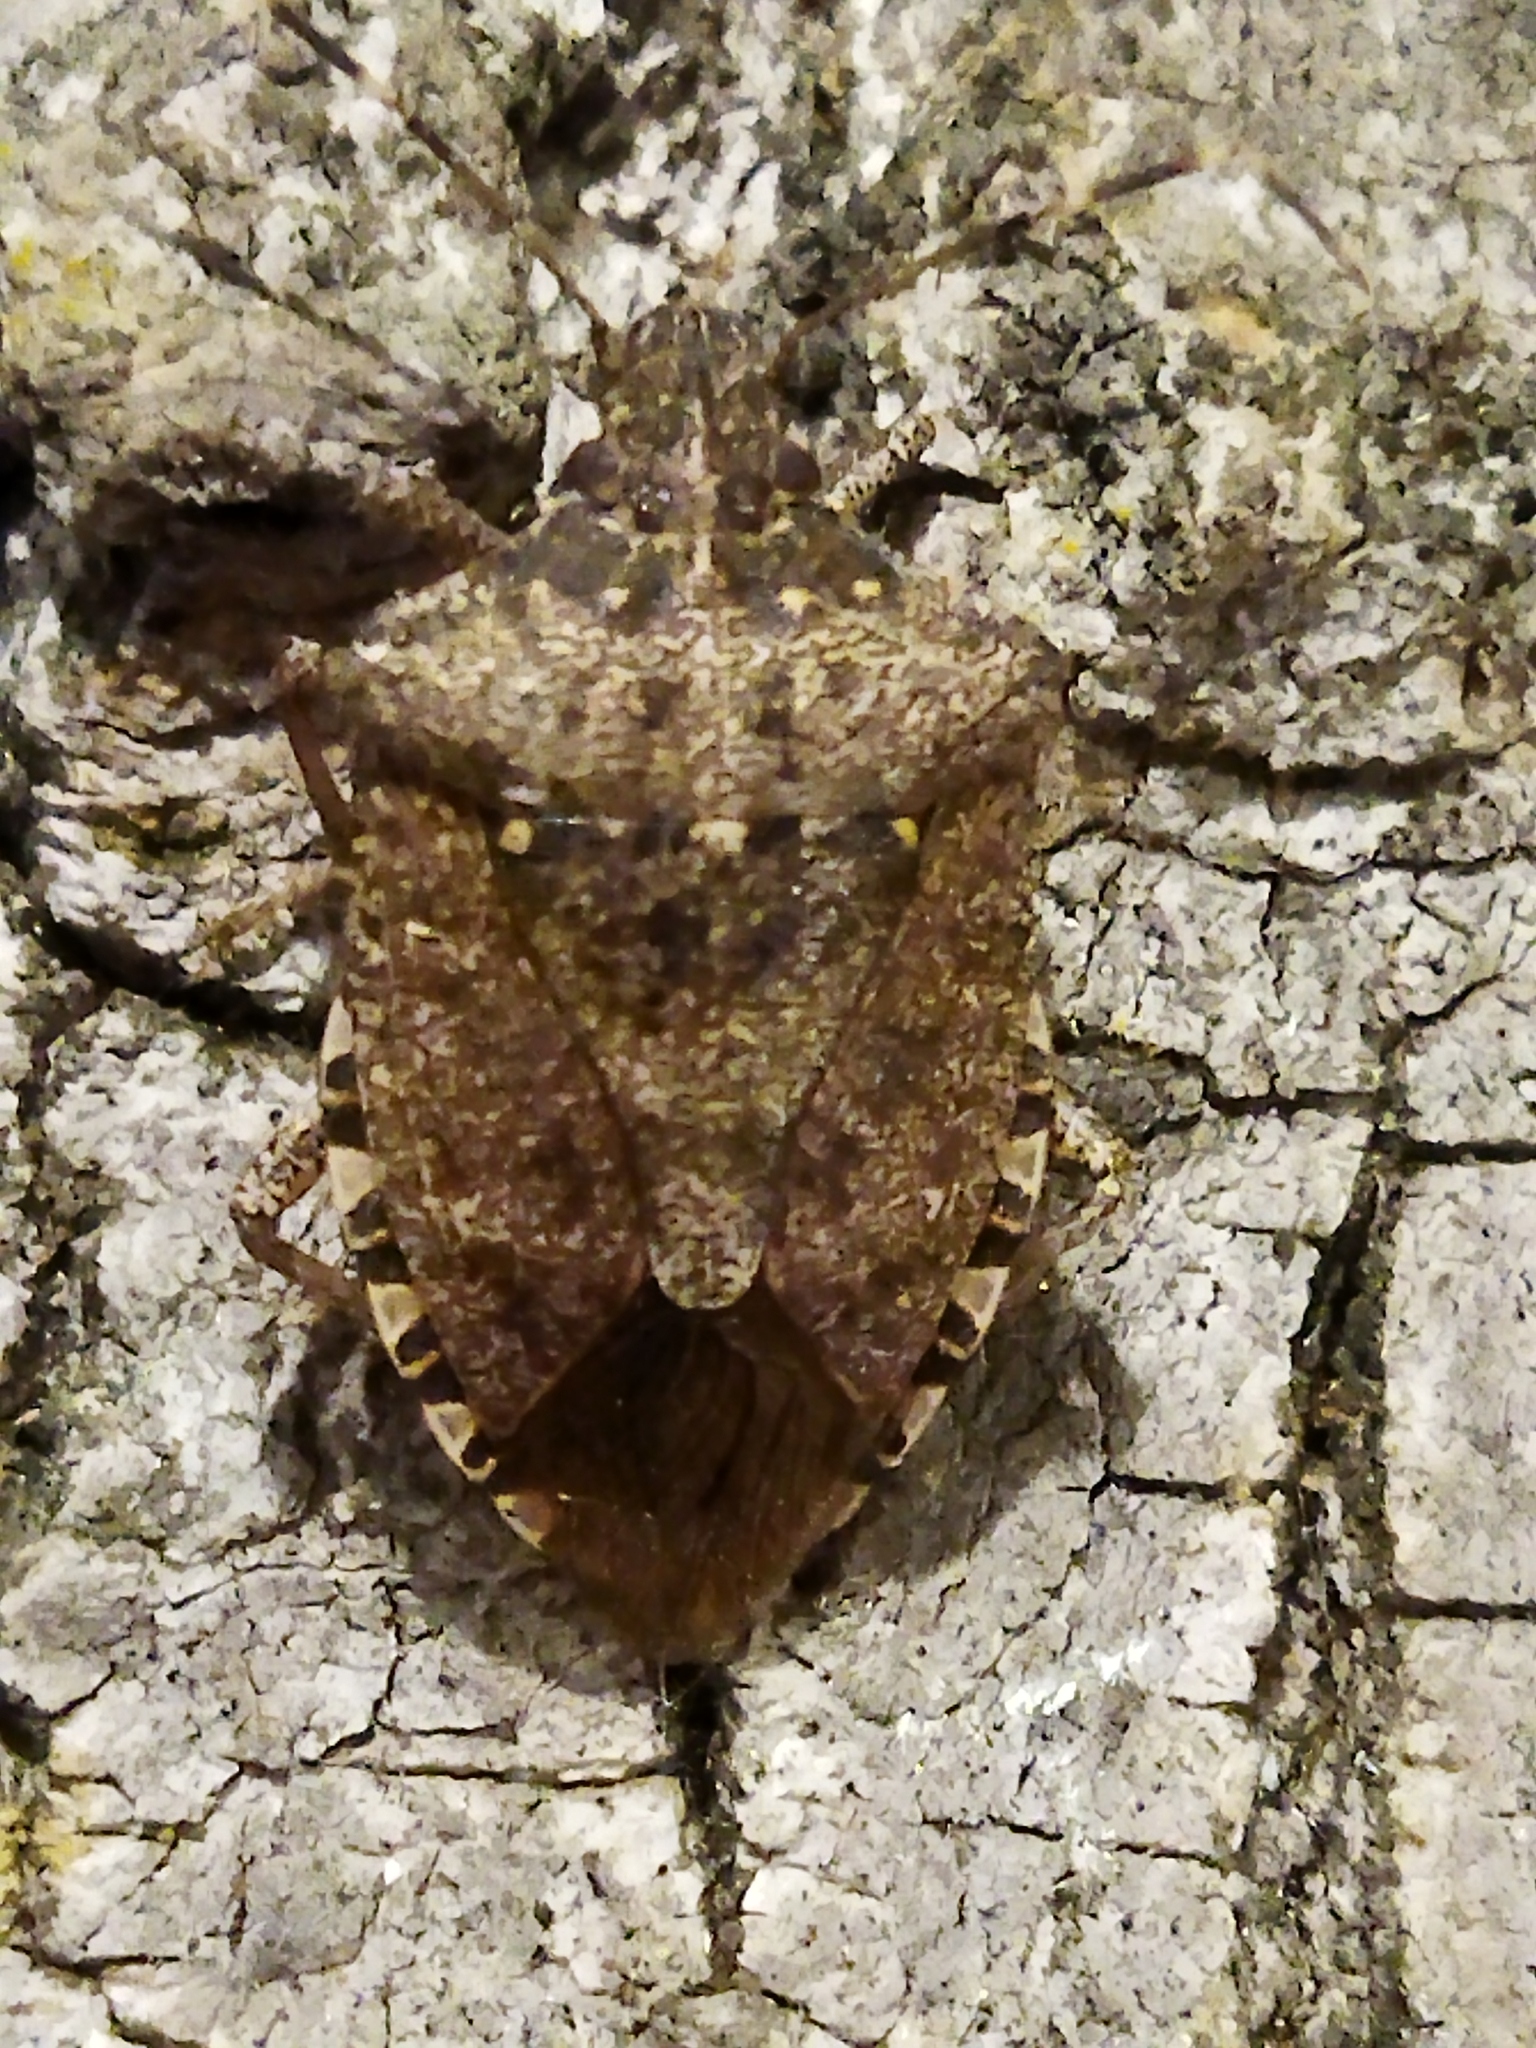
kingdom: Animalia
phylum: Arthropoda
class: Insecta
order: Hemiptera
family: Pentatomidae
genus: Halyomorpha
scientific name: Halyomorpha halys
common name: Brown marmorated stink bug
